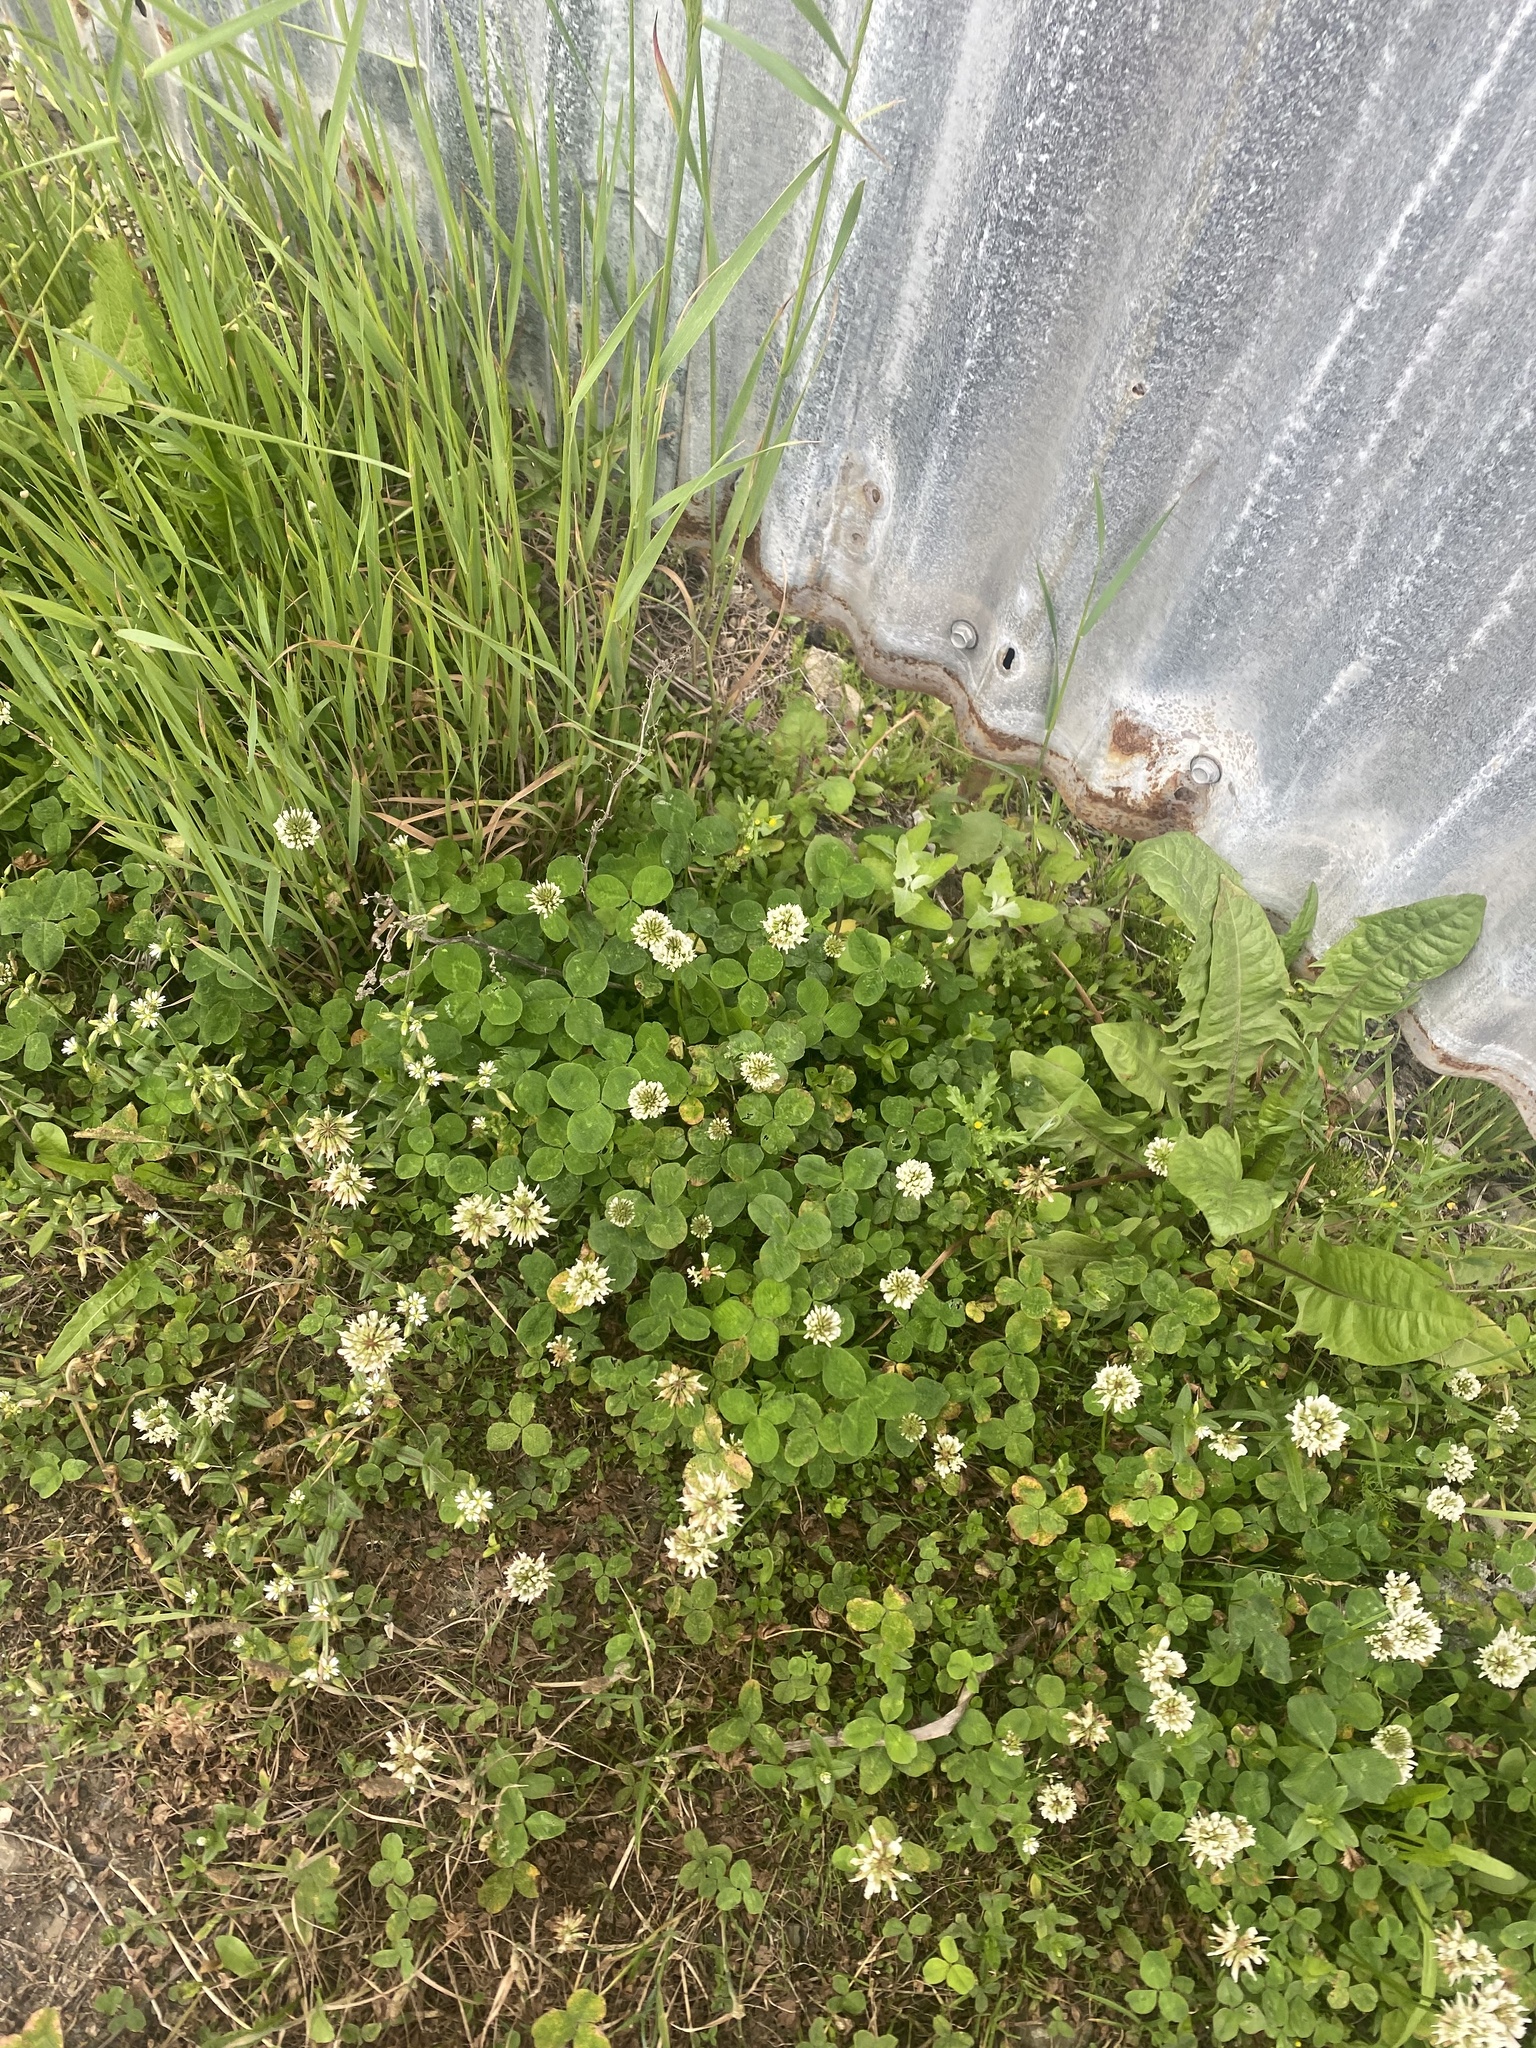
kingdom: Plantae
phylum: Tracheophyta
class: Magnoliopsida
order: Fabales
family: Fabaceae
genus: Trifolium
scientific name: Trifolium repens
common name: White clover
